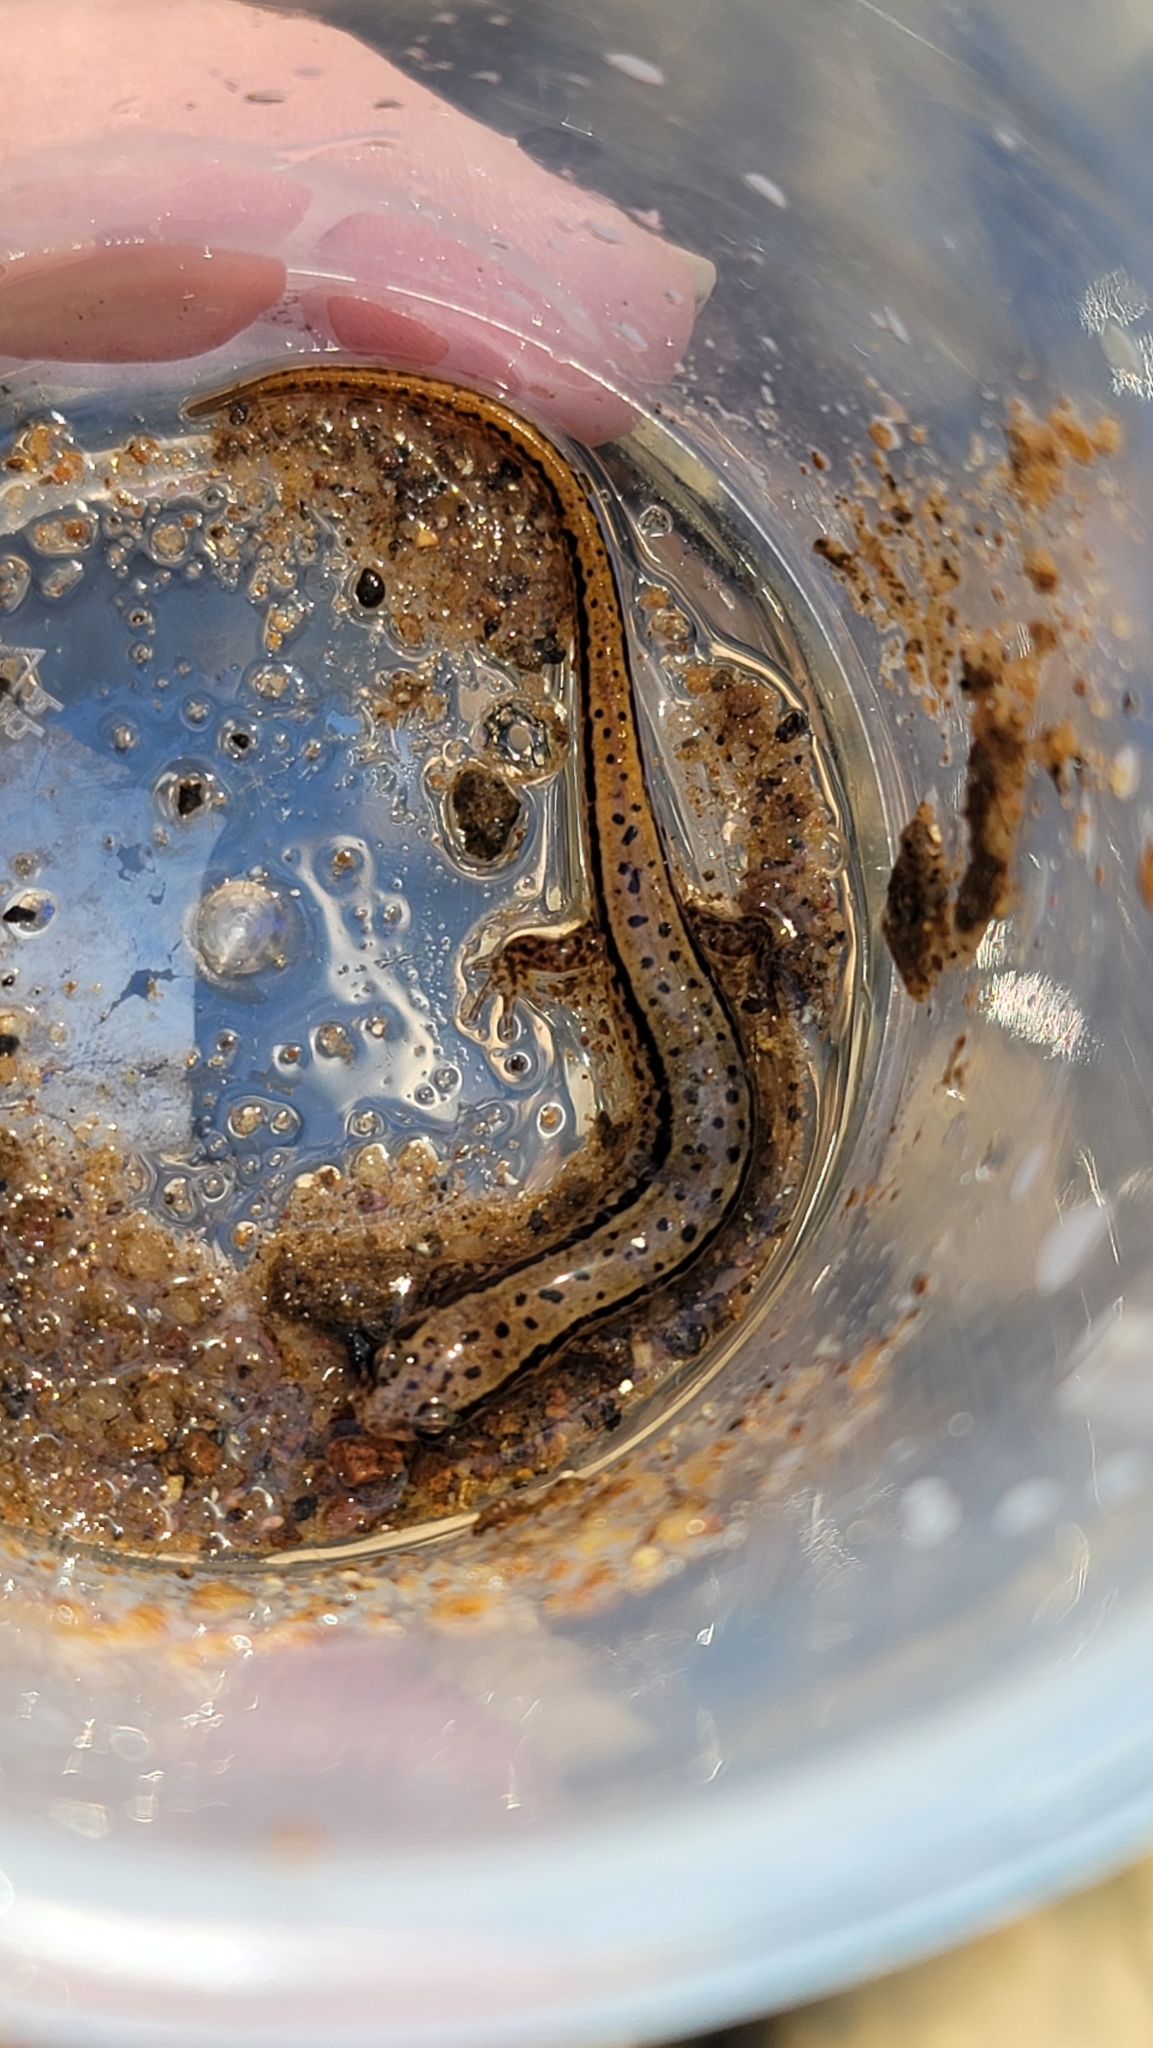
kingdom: Animalia
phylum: Chordata
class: Amphibia
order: Caudata
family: Plethodontidae
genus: Eurycea
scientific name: Eurycea wilderae
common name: Blue ridge two-lined salamander
